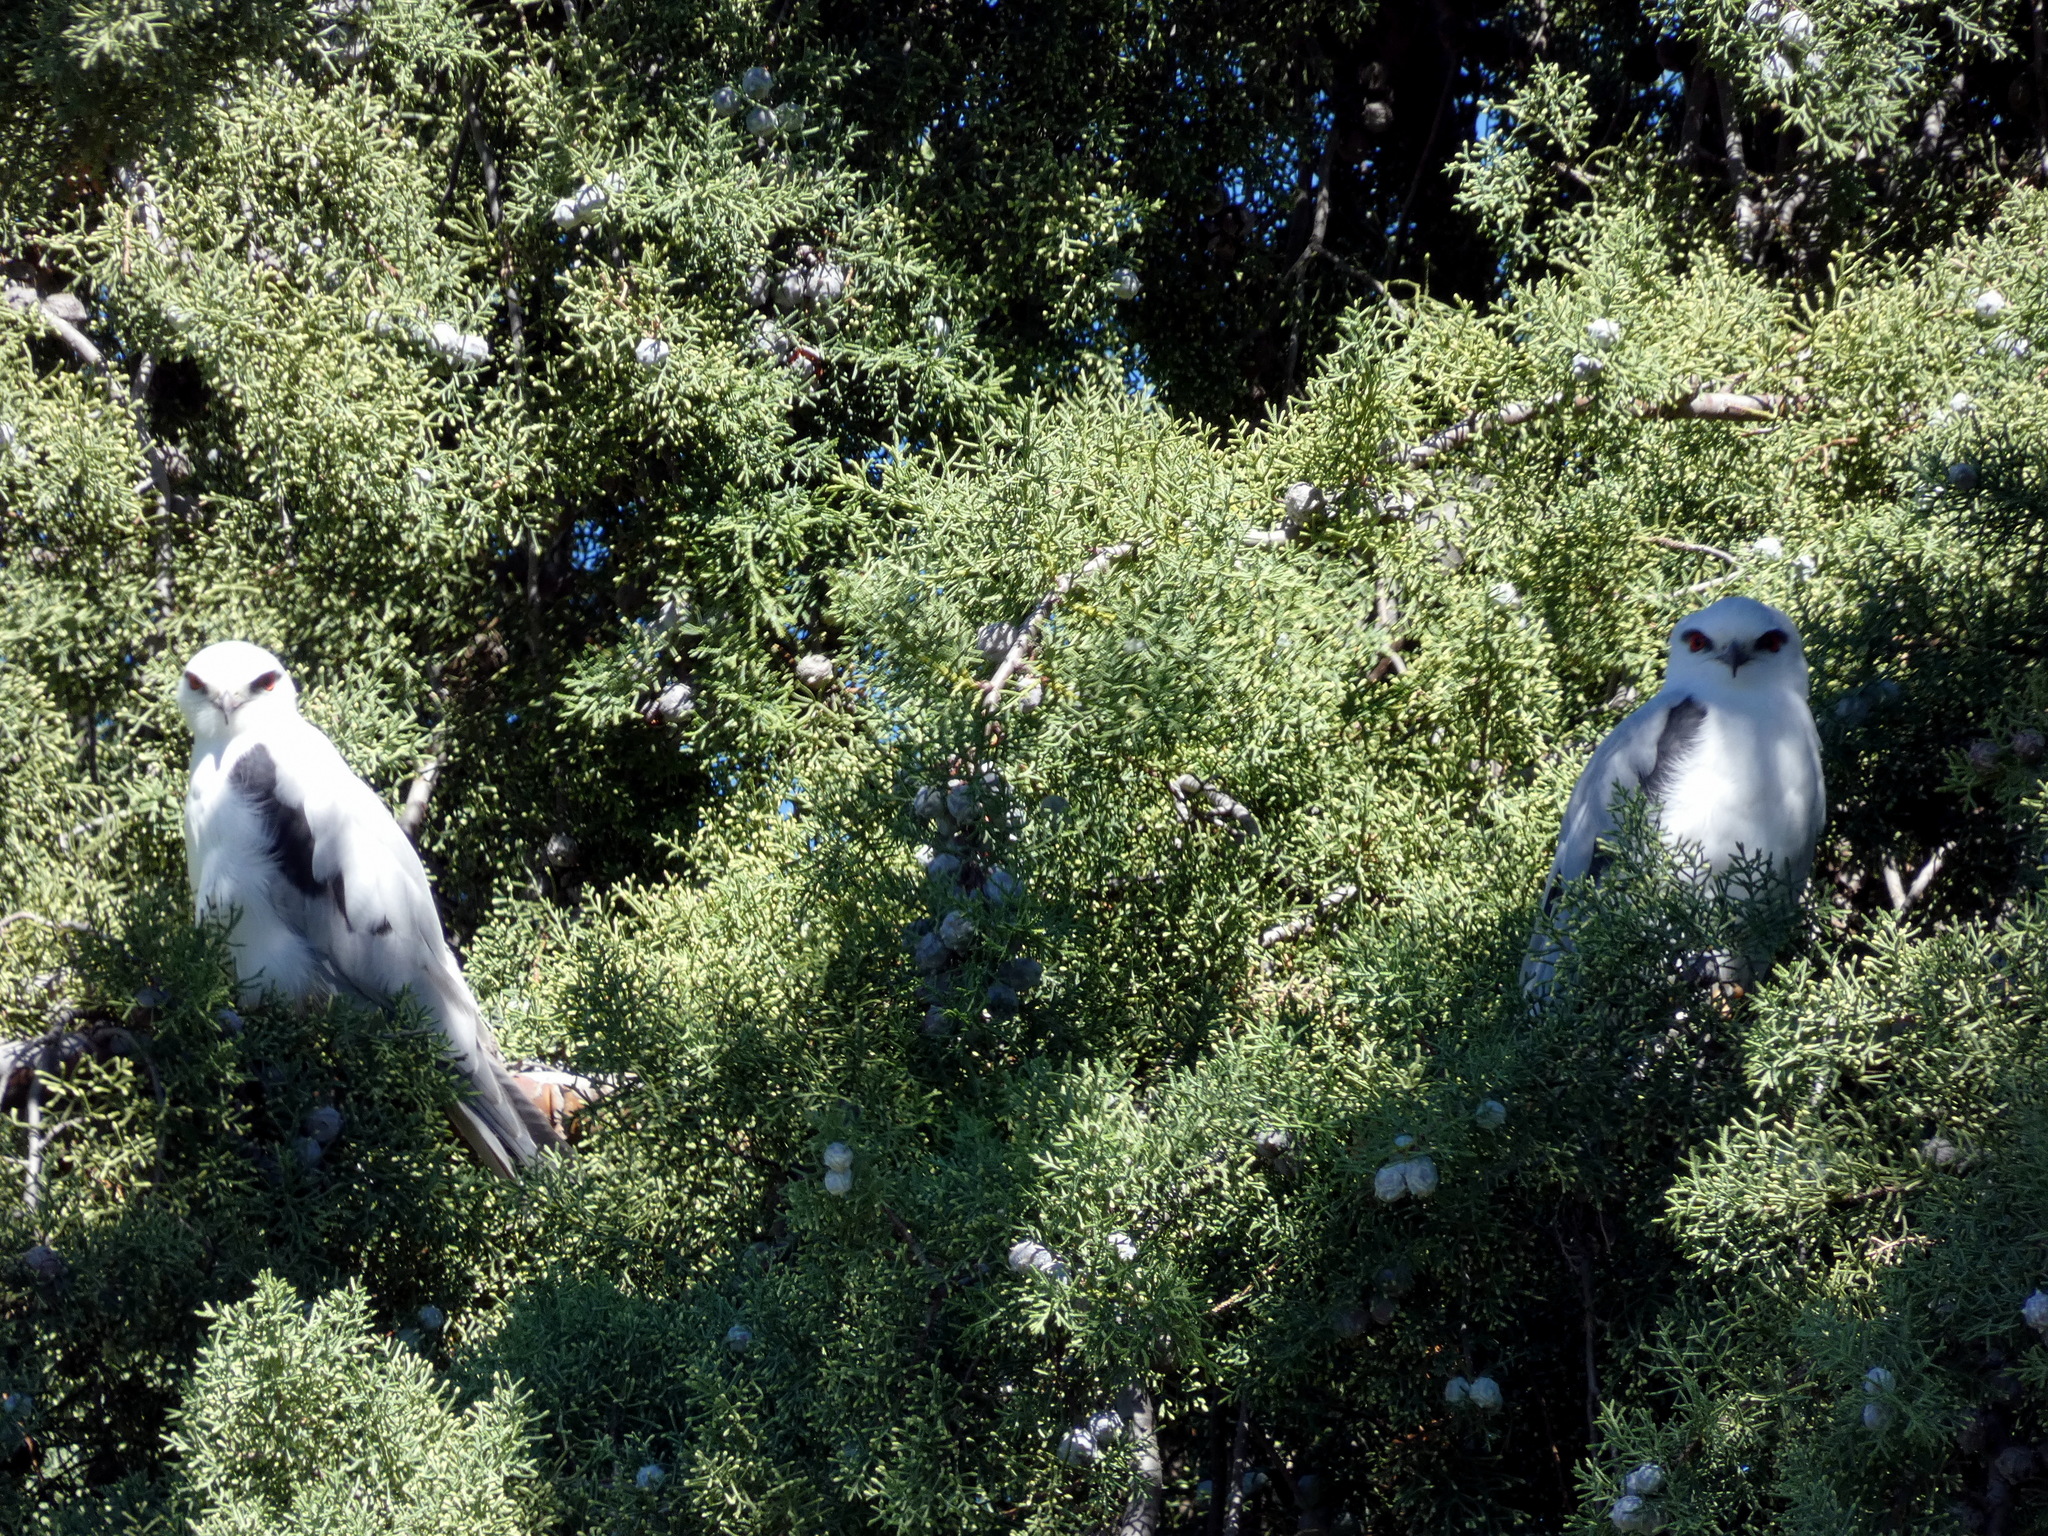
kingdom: Animalia
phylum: Chordata
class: Aves
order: Accipitriformes
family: Accipitridae
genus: Elanus
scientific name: Elanus axillaris
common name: Black-shouldered kite
